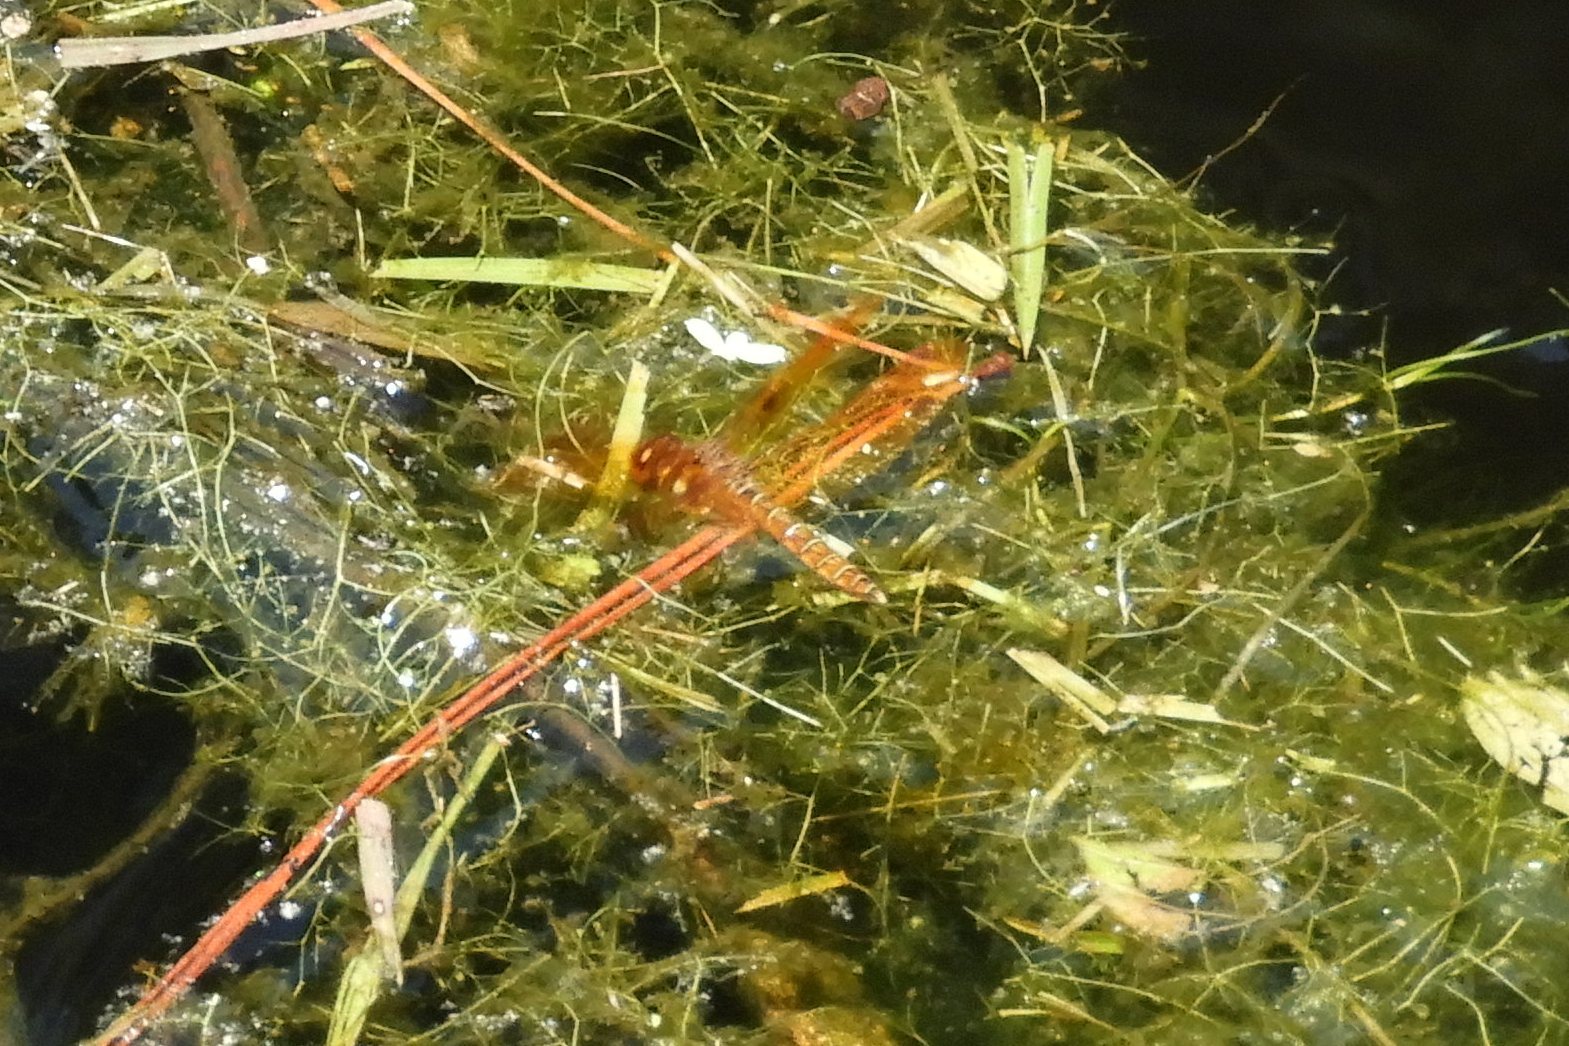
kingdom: Animalia
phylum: Arthropoda
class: Insecta
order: Odonata
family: Libellulidae
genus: Perithemis
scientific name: Perithemis tenera
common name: Eastern amberwing
